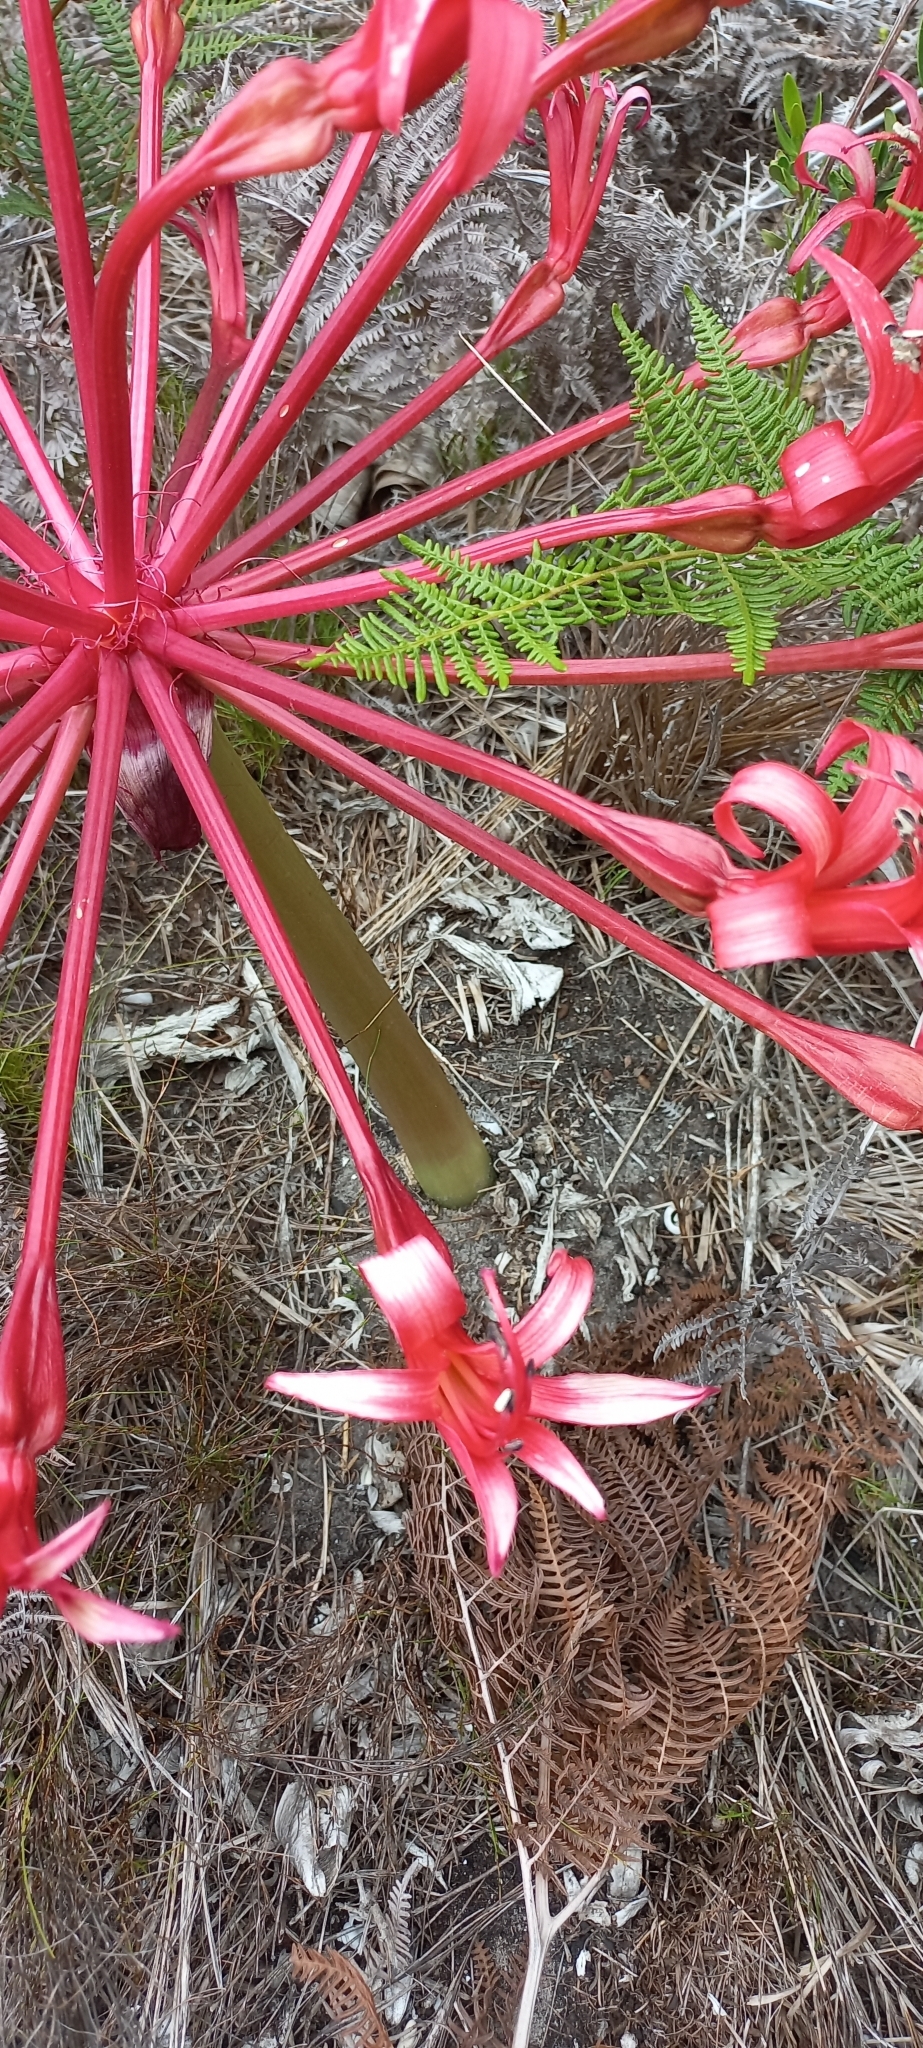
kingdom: Plantae
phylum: Tracheophyta
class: Liliopsida
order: Asparagales
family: Amaryllidaceae
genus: Brunsvigia
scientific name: Brunsvigia orientalis
